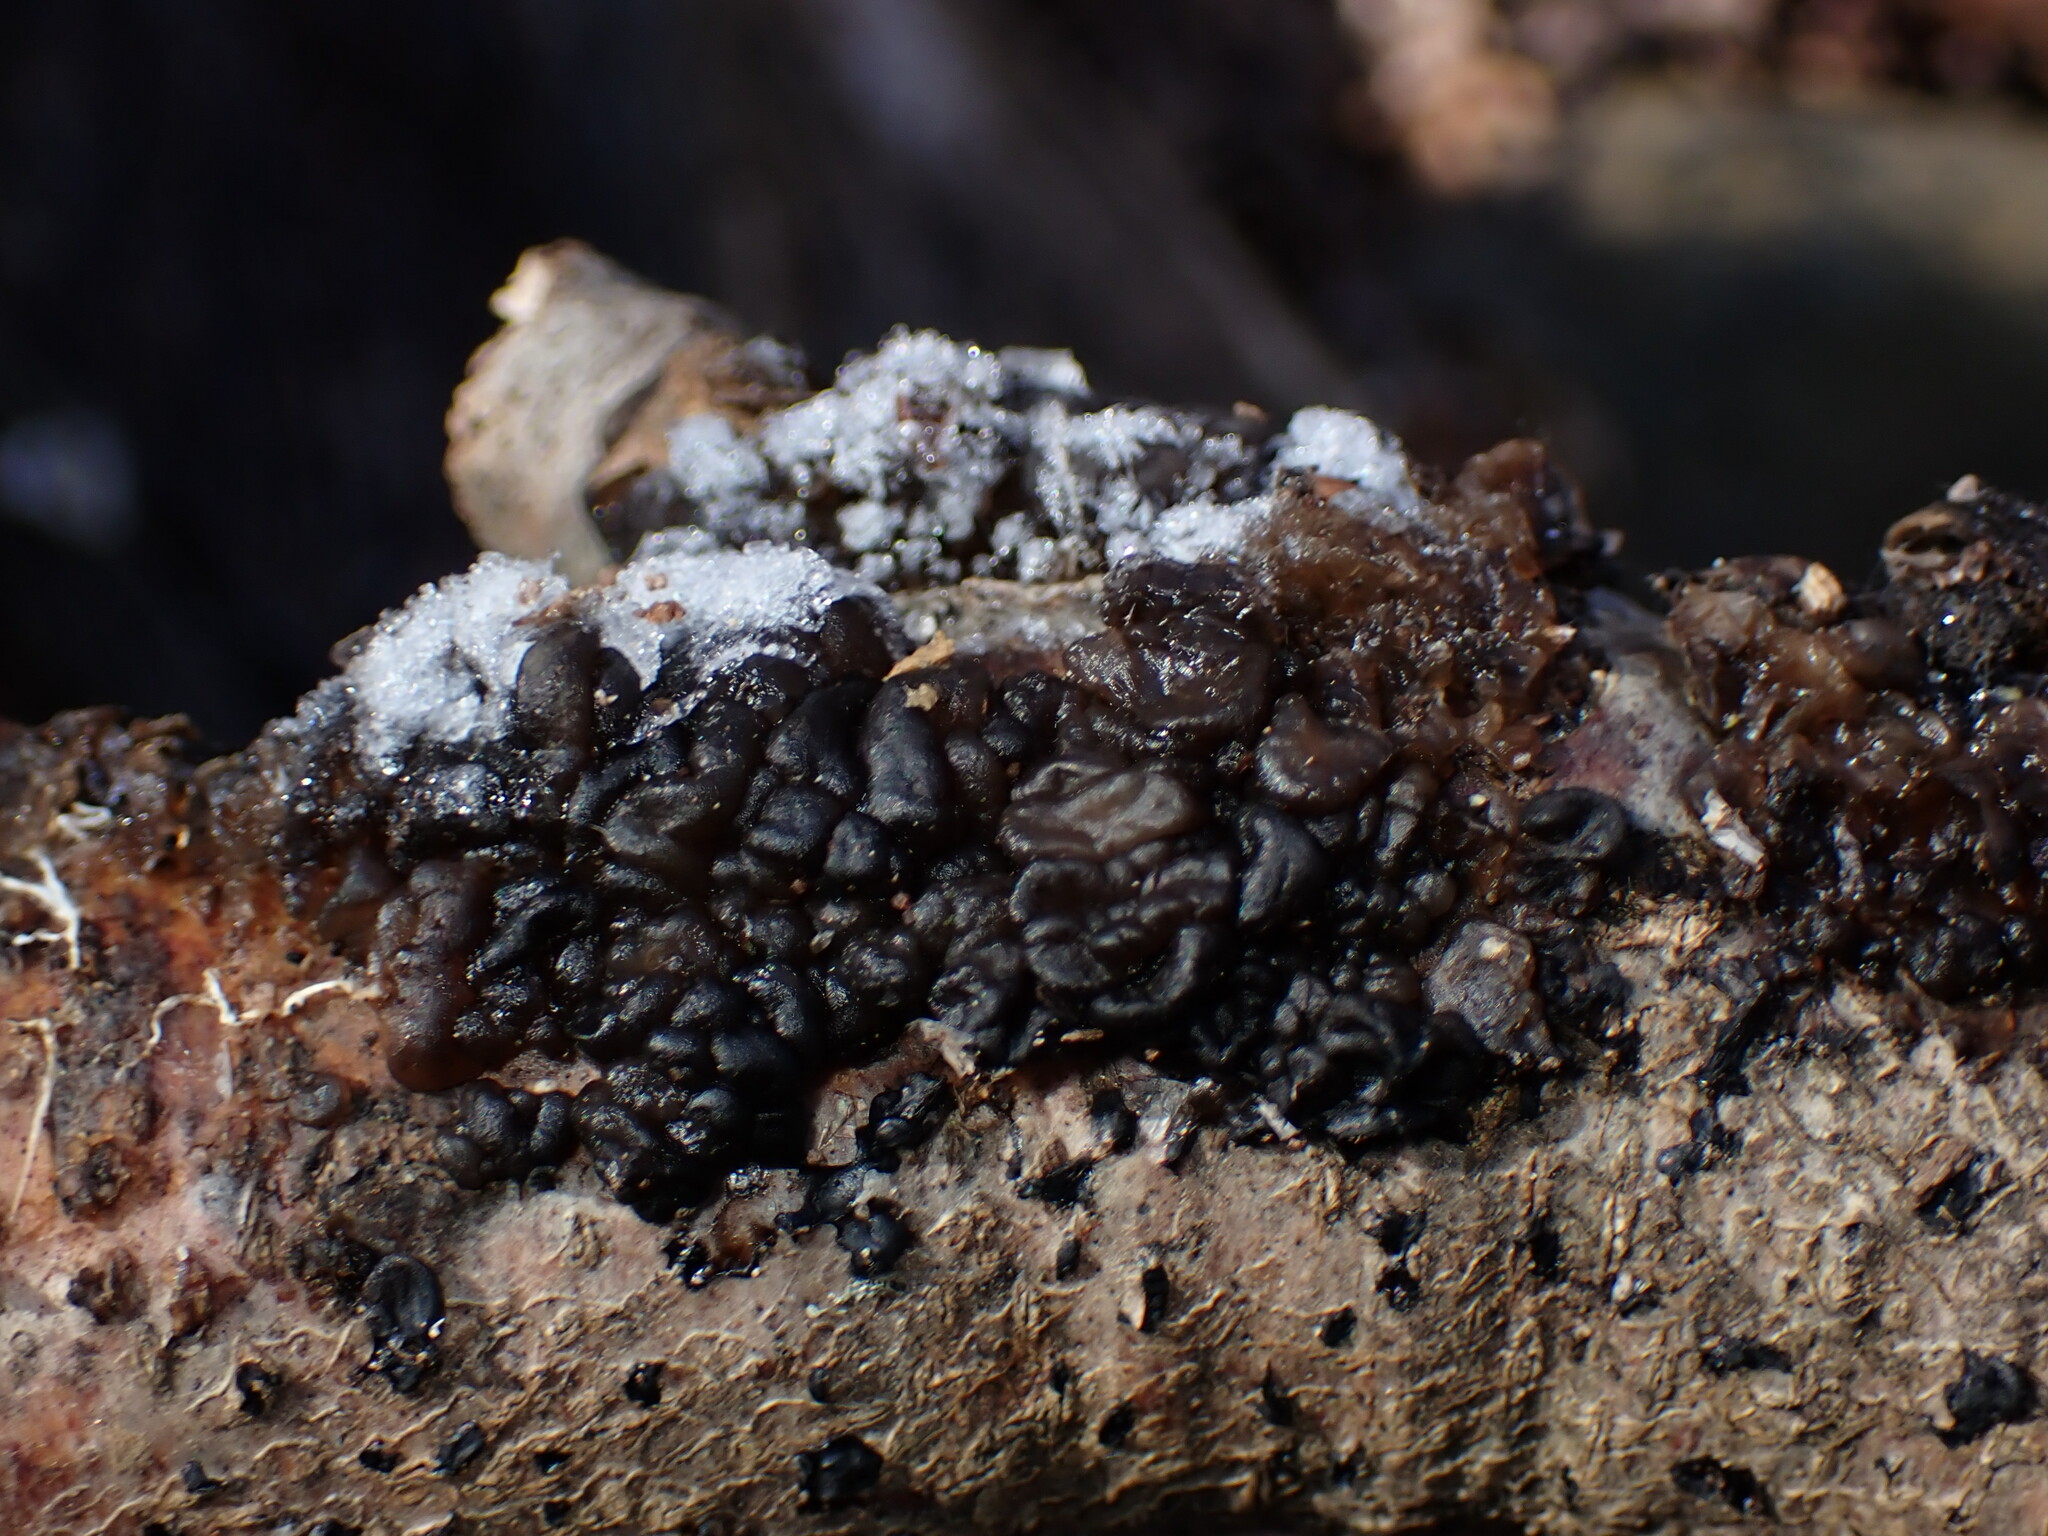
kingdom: Fungi
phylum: Basidiomycota
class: Agaricomycetes
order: Auriculariales
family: Auriculariaceae
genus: Exidia
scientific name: Exidia nigricans
